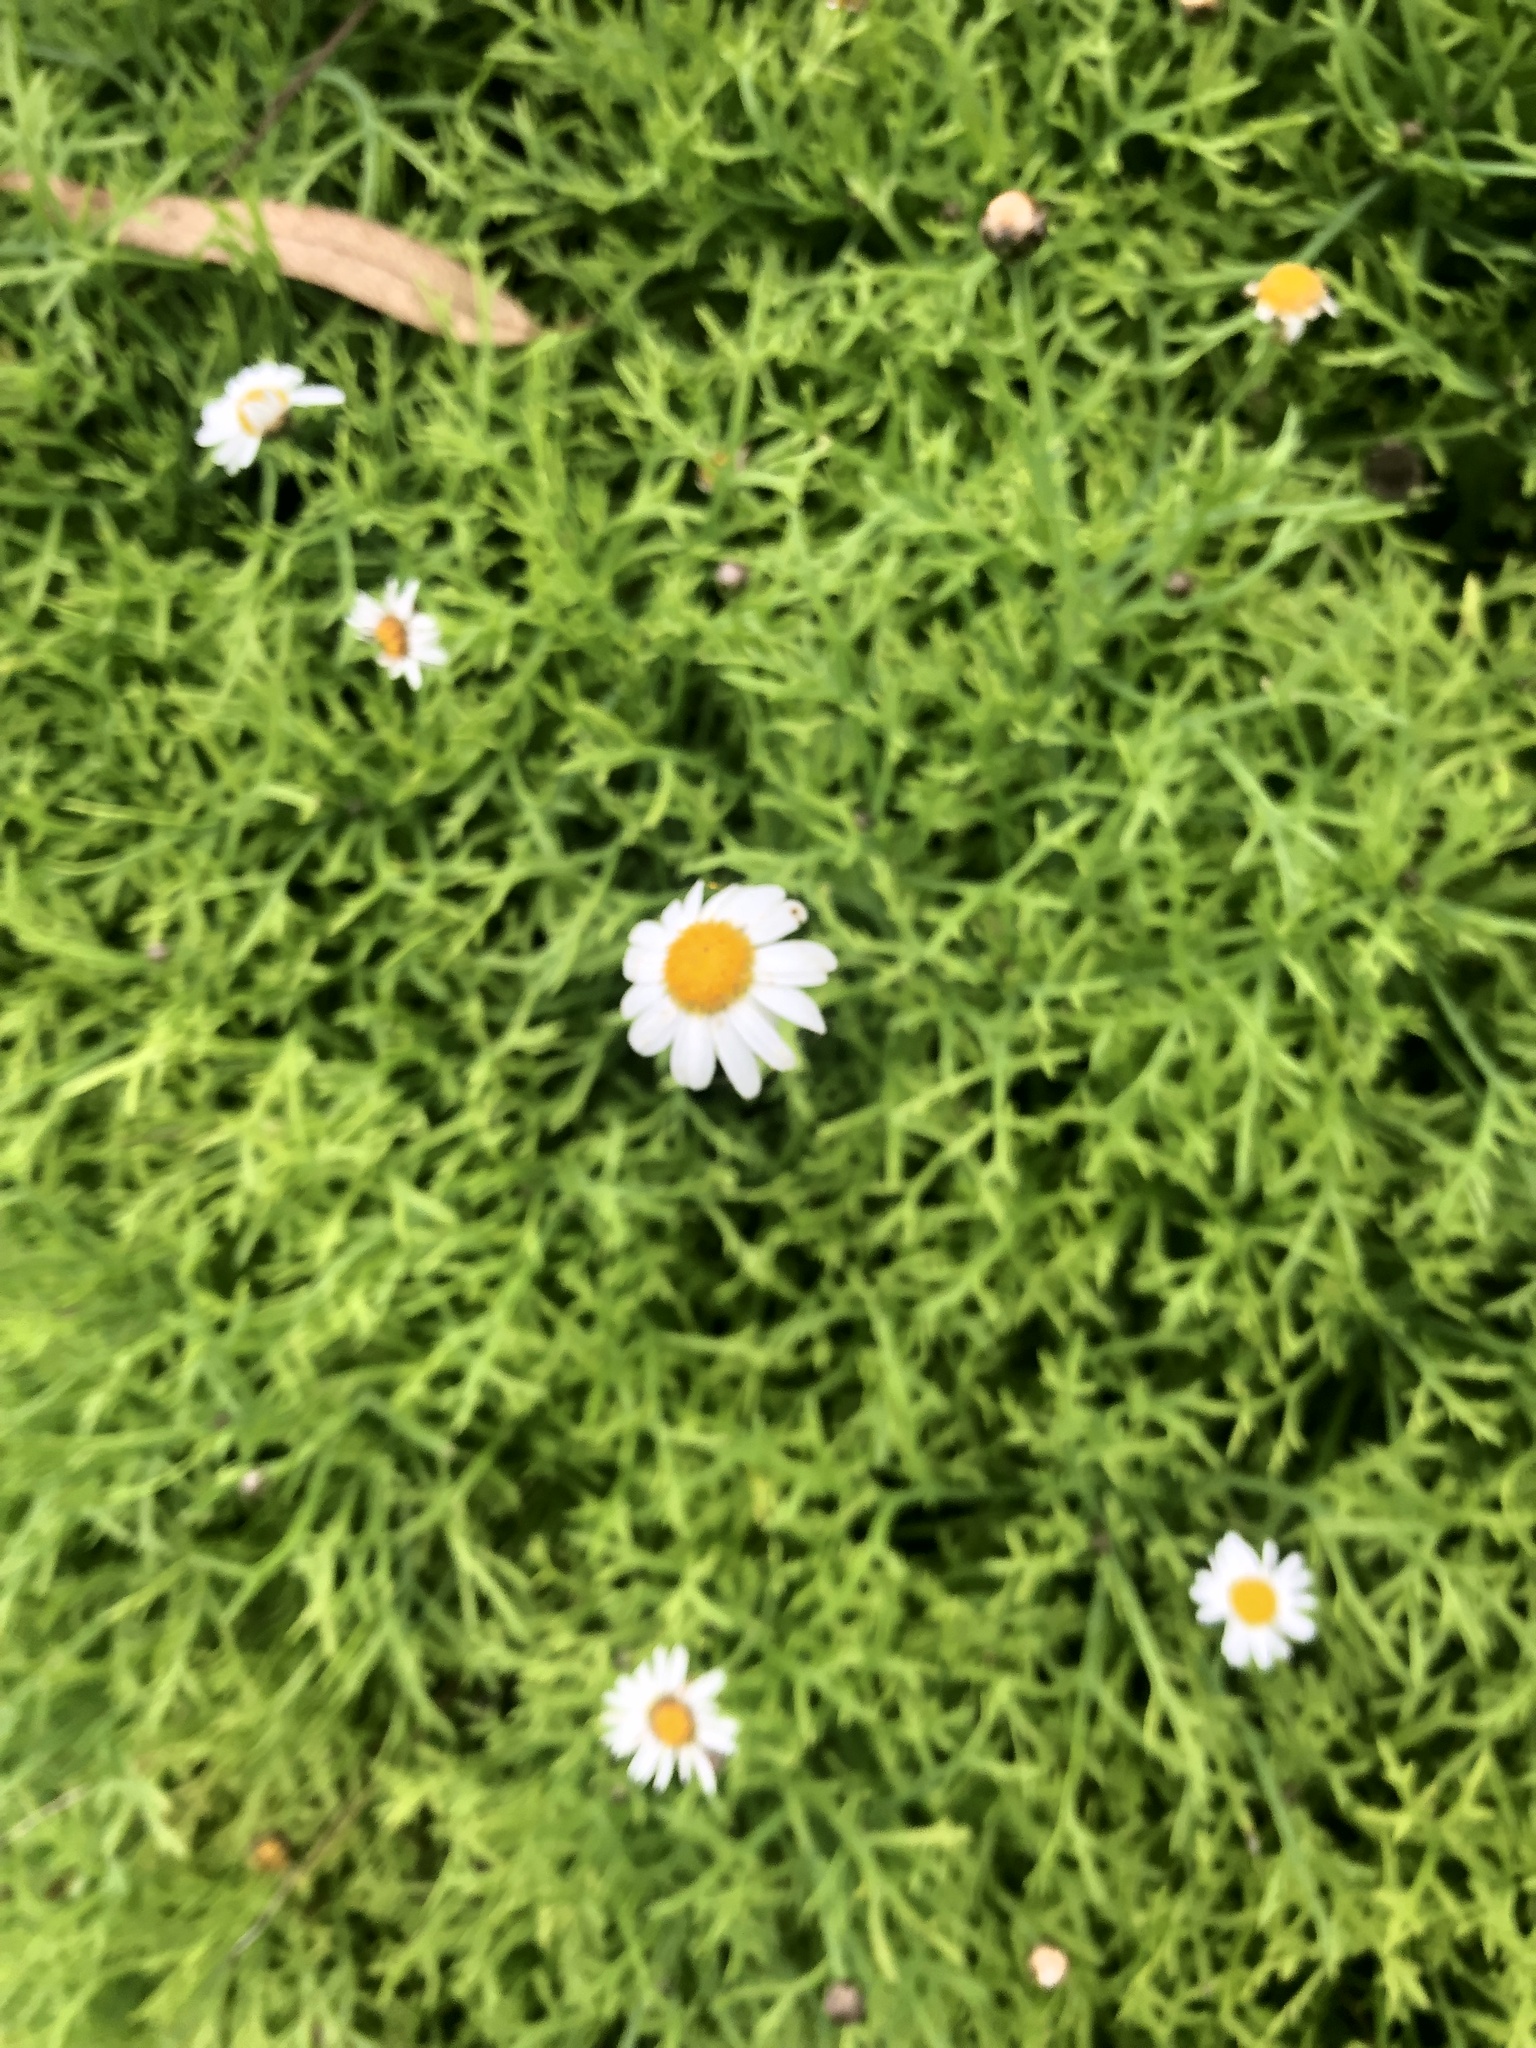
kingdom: Plantae
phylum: Tracheophyta
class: Magnoliopsida
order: Asterales
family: Asteraceae
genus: Argyranthemum
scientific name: Argyranthemum frutescens
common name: Paris daisy
